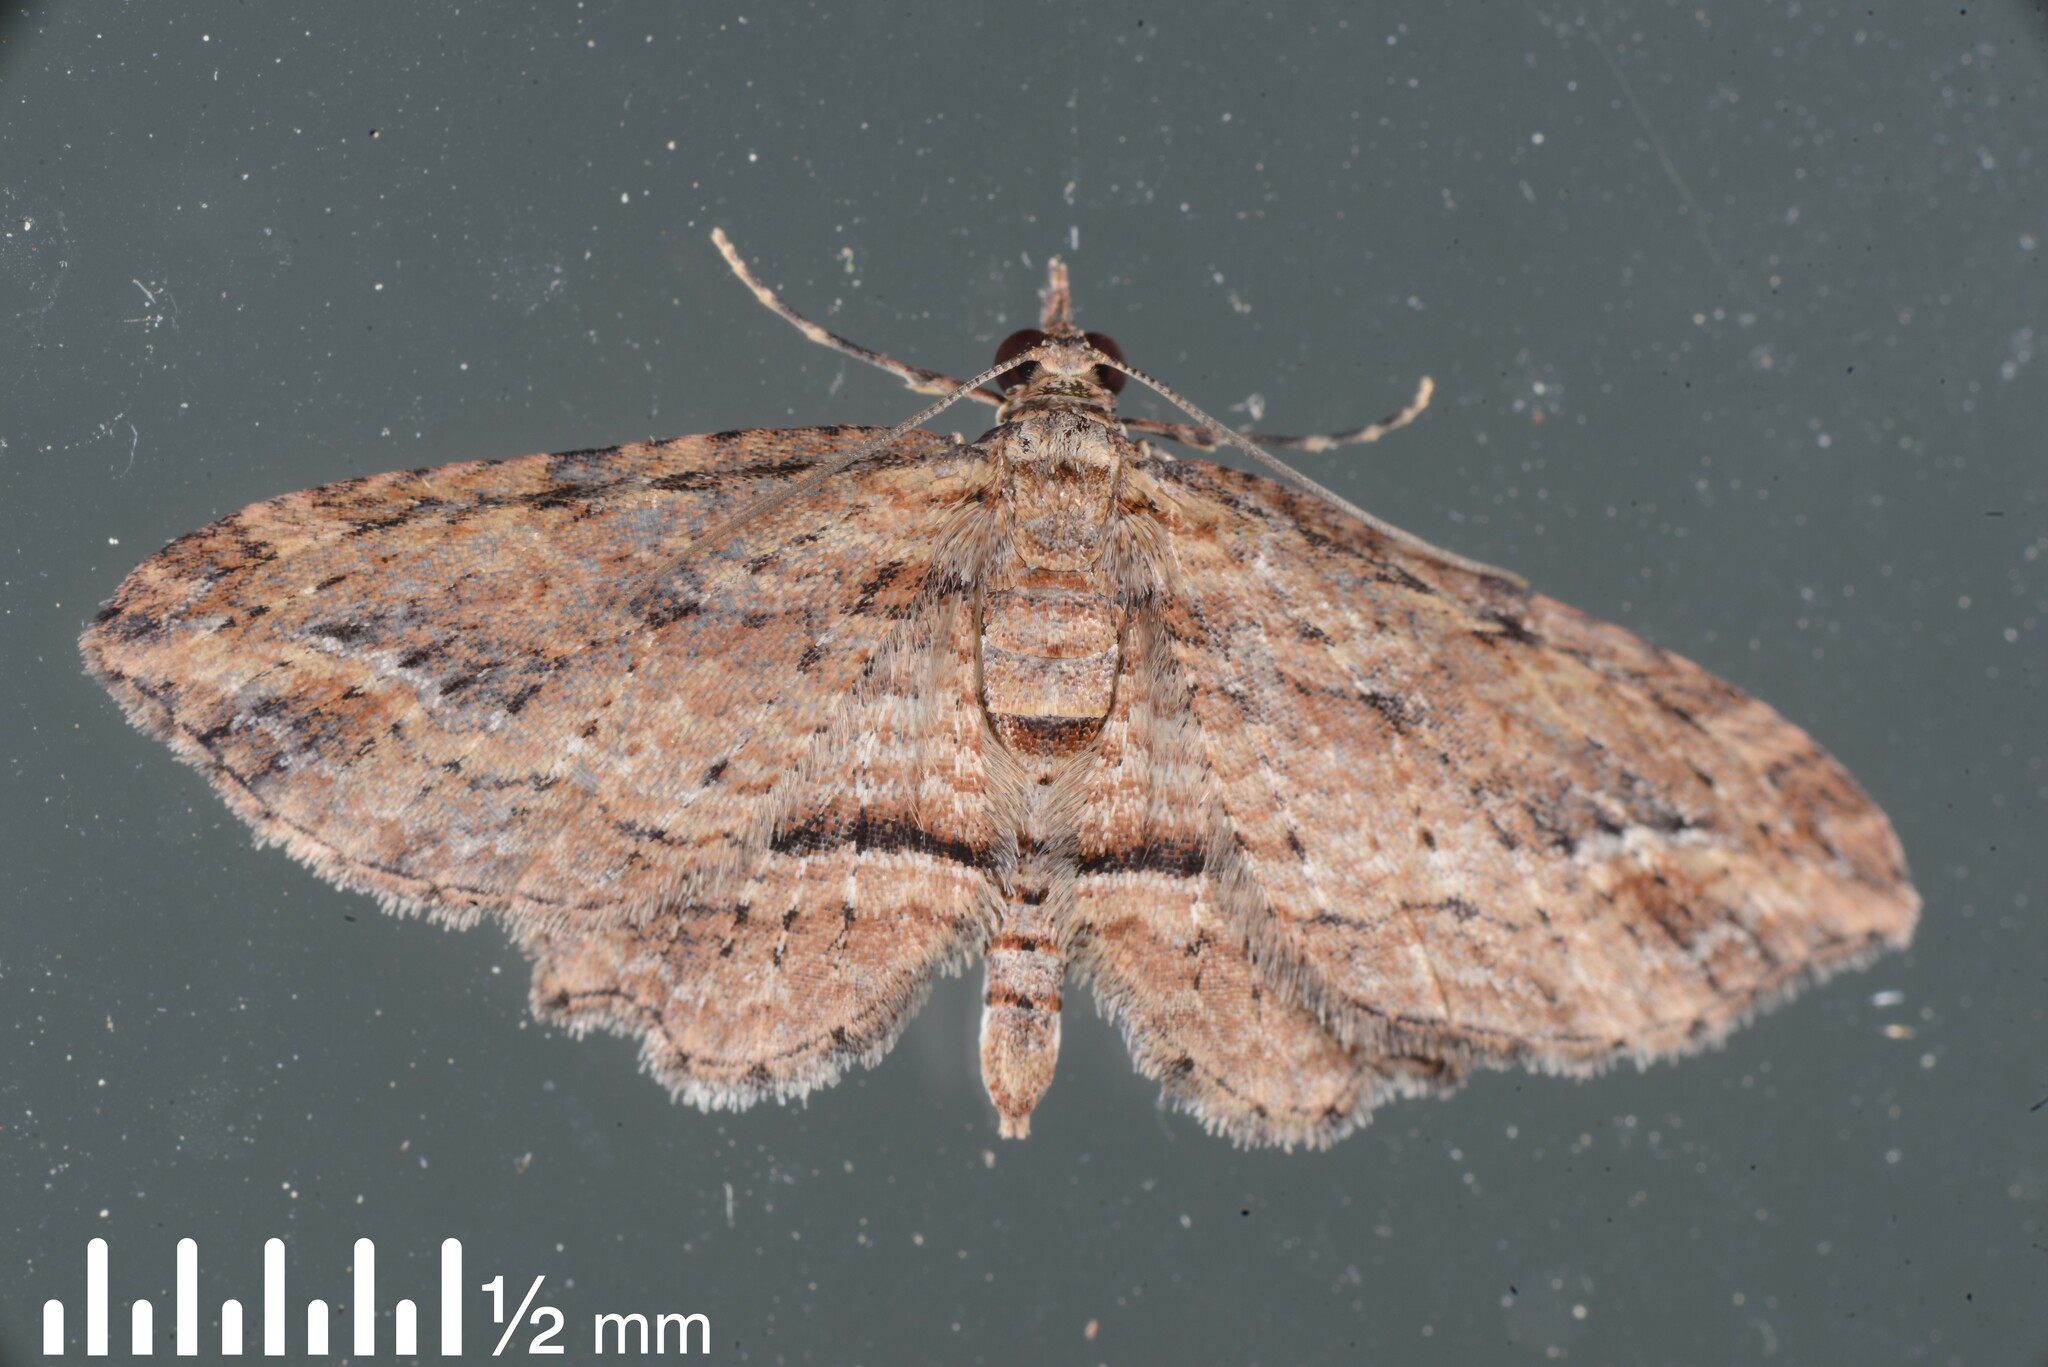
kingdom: Animalia
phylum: Arthropoda
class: Insecta
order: Lepidoptera
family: Geometridae
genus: Chloroclystis
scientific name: Chloroclystis filata
